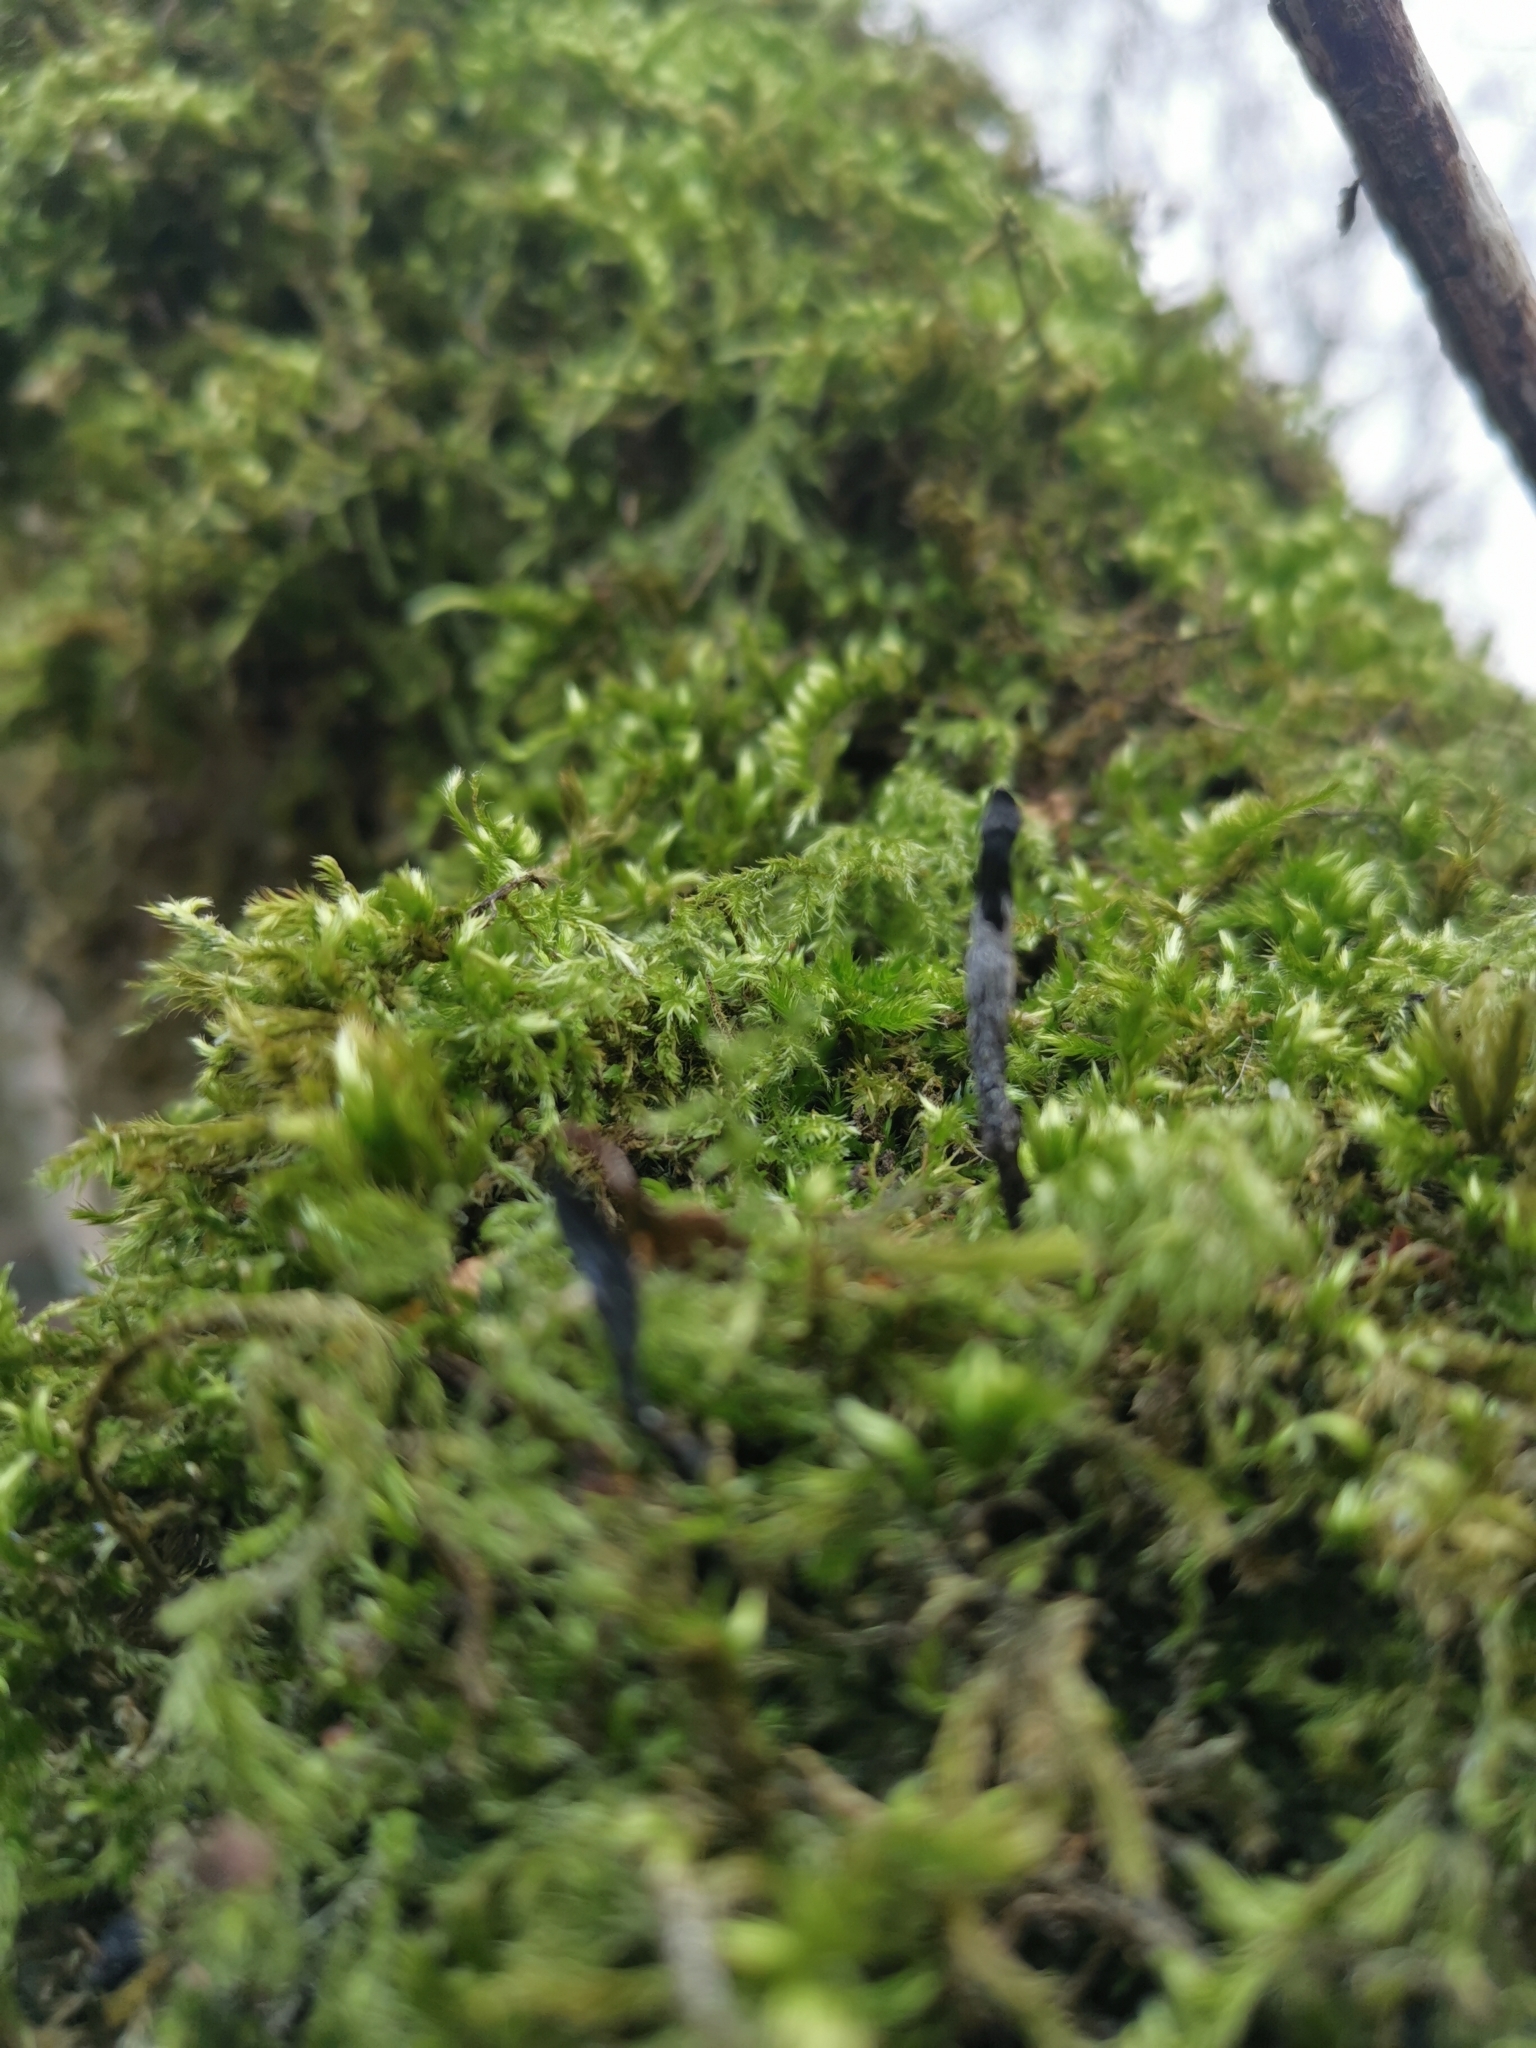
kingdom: Fungi
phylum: Ascomycota
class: Sordariomycetes
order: Xylariales
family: Xylariaceae
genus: Xylaria
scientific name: Xylaria hypoxylon
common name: Candle-snuff fungus
